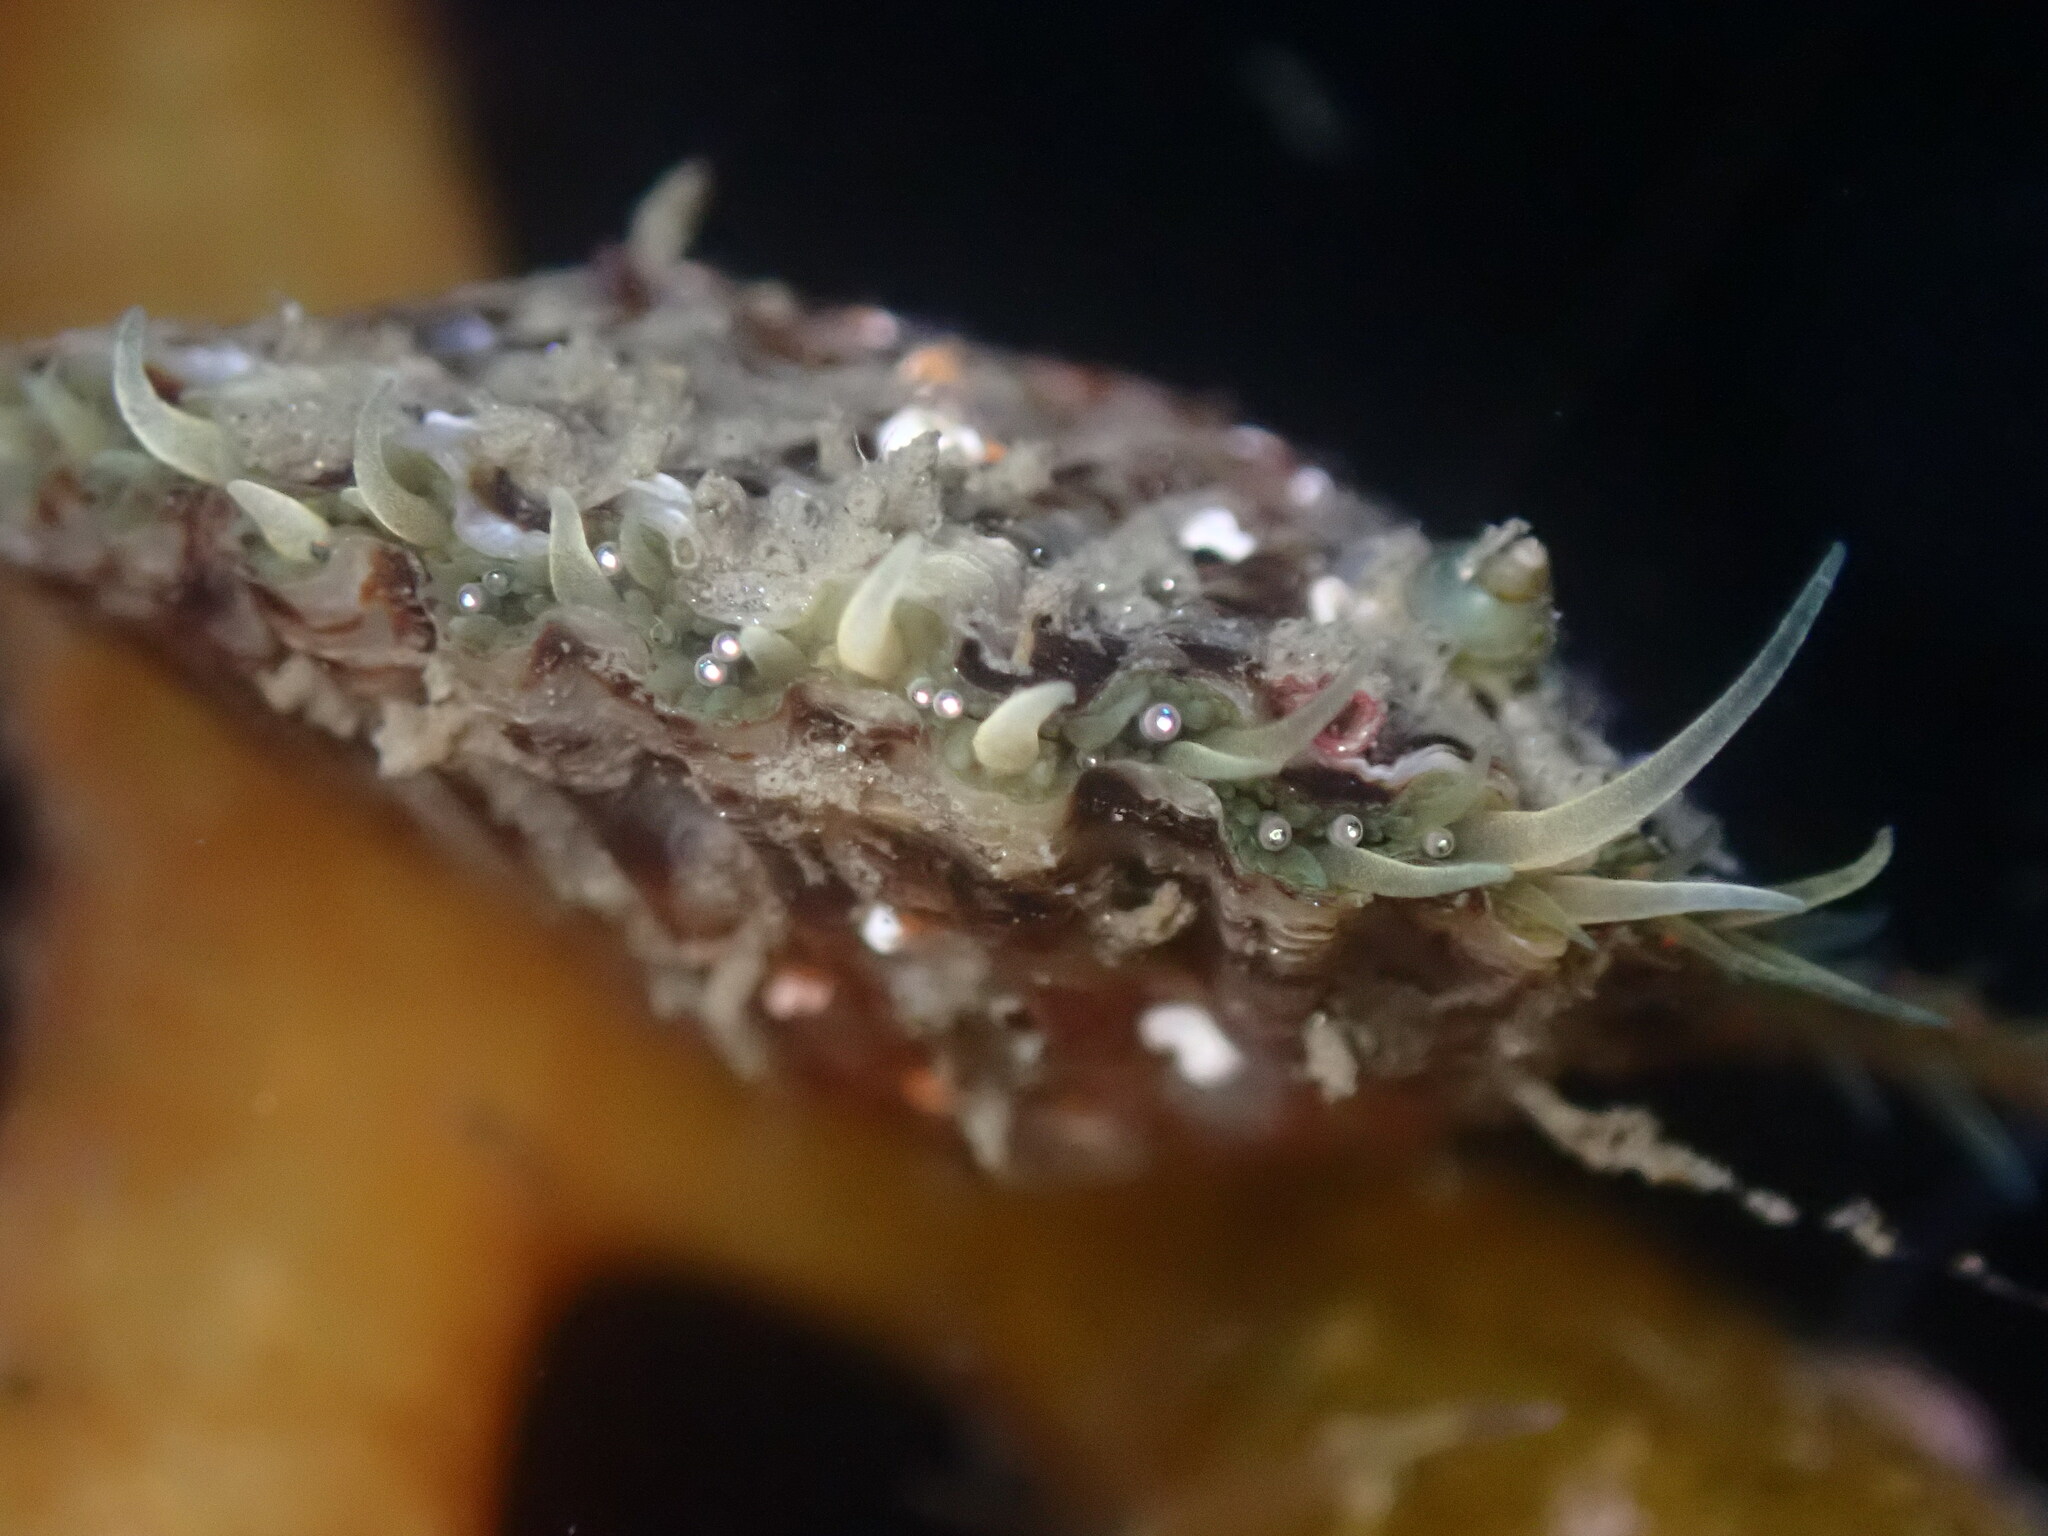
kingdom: Animalia
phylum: Mollusca
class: Bivalvia
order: Pectinida
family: Pectinidae
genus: Leptopecten
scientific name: Leptopecten latiauratus
